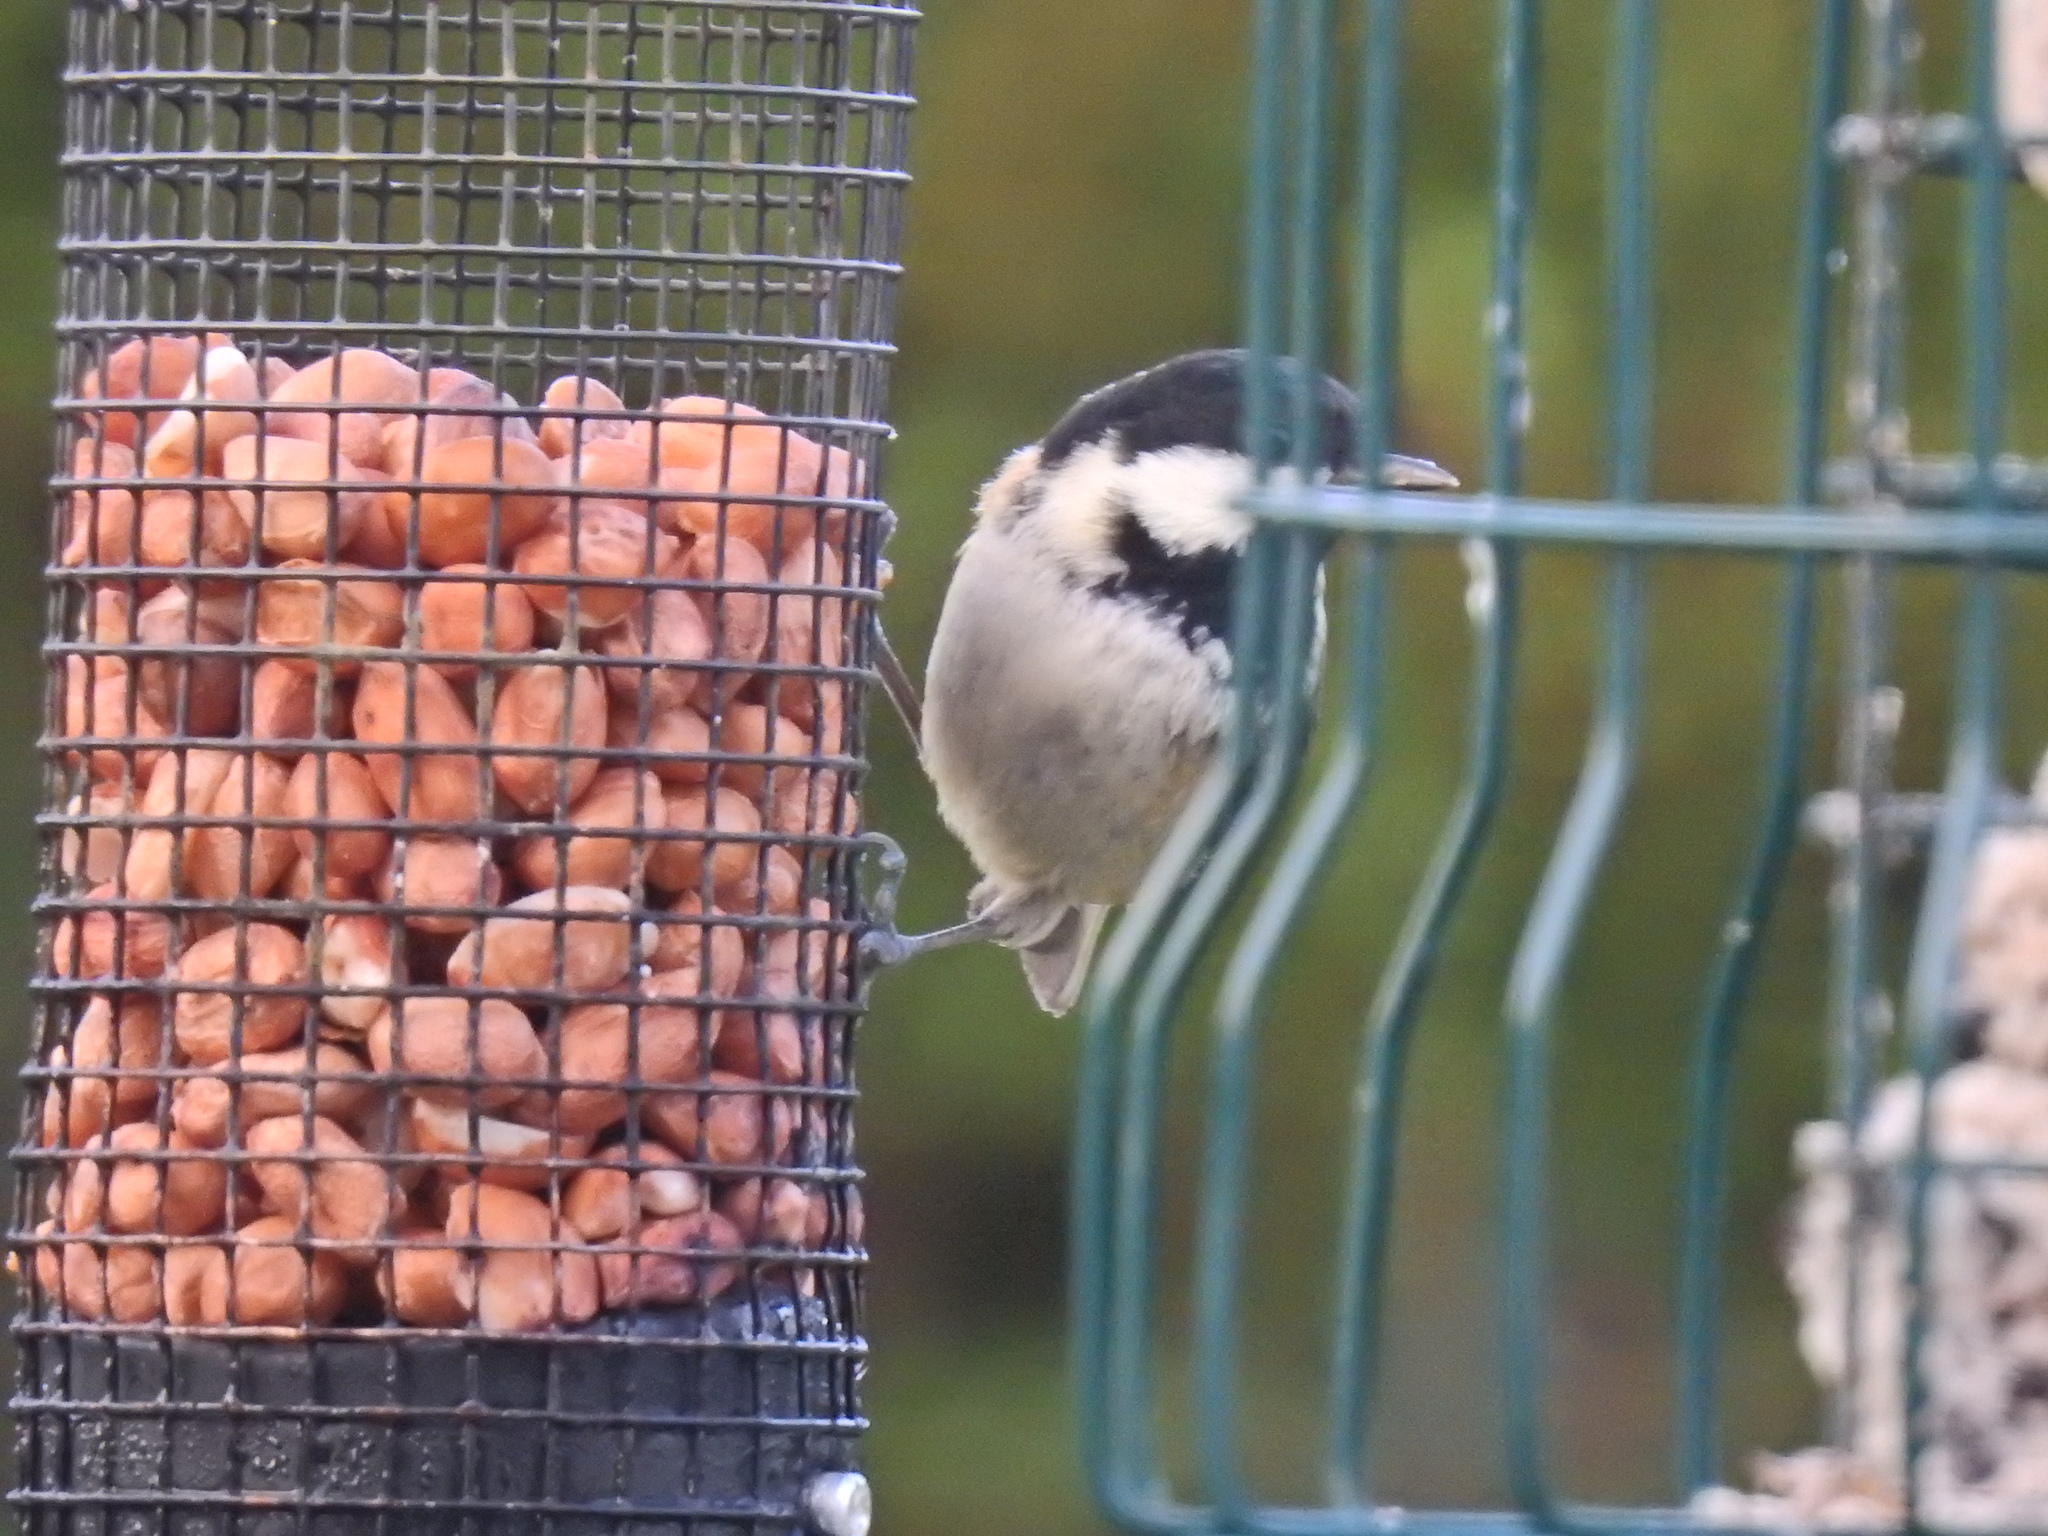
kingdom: Animalia
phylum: Chordata
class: Aves
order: Passeriformes
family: Paridae
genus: Periparus
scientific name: Periparus ater
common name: Coal tit
